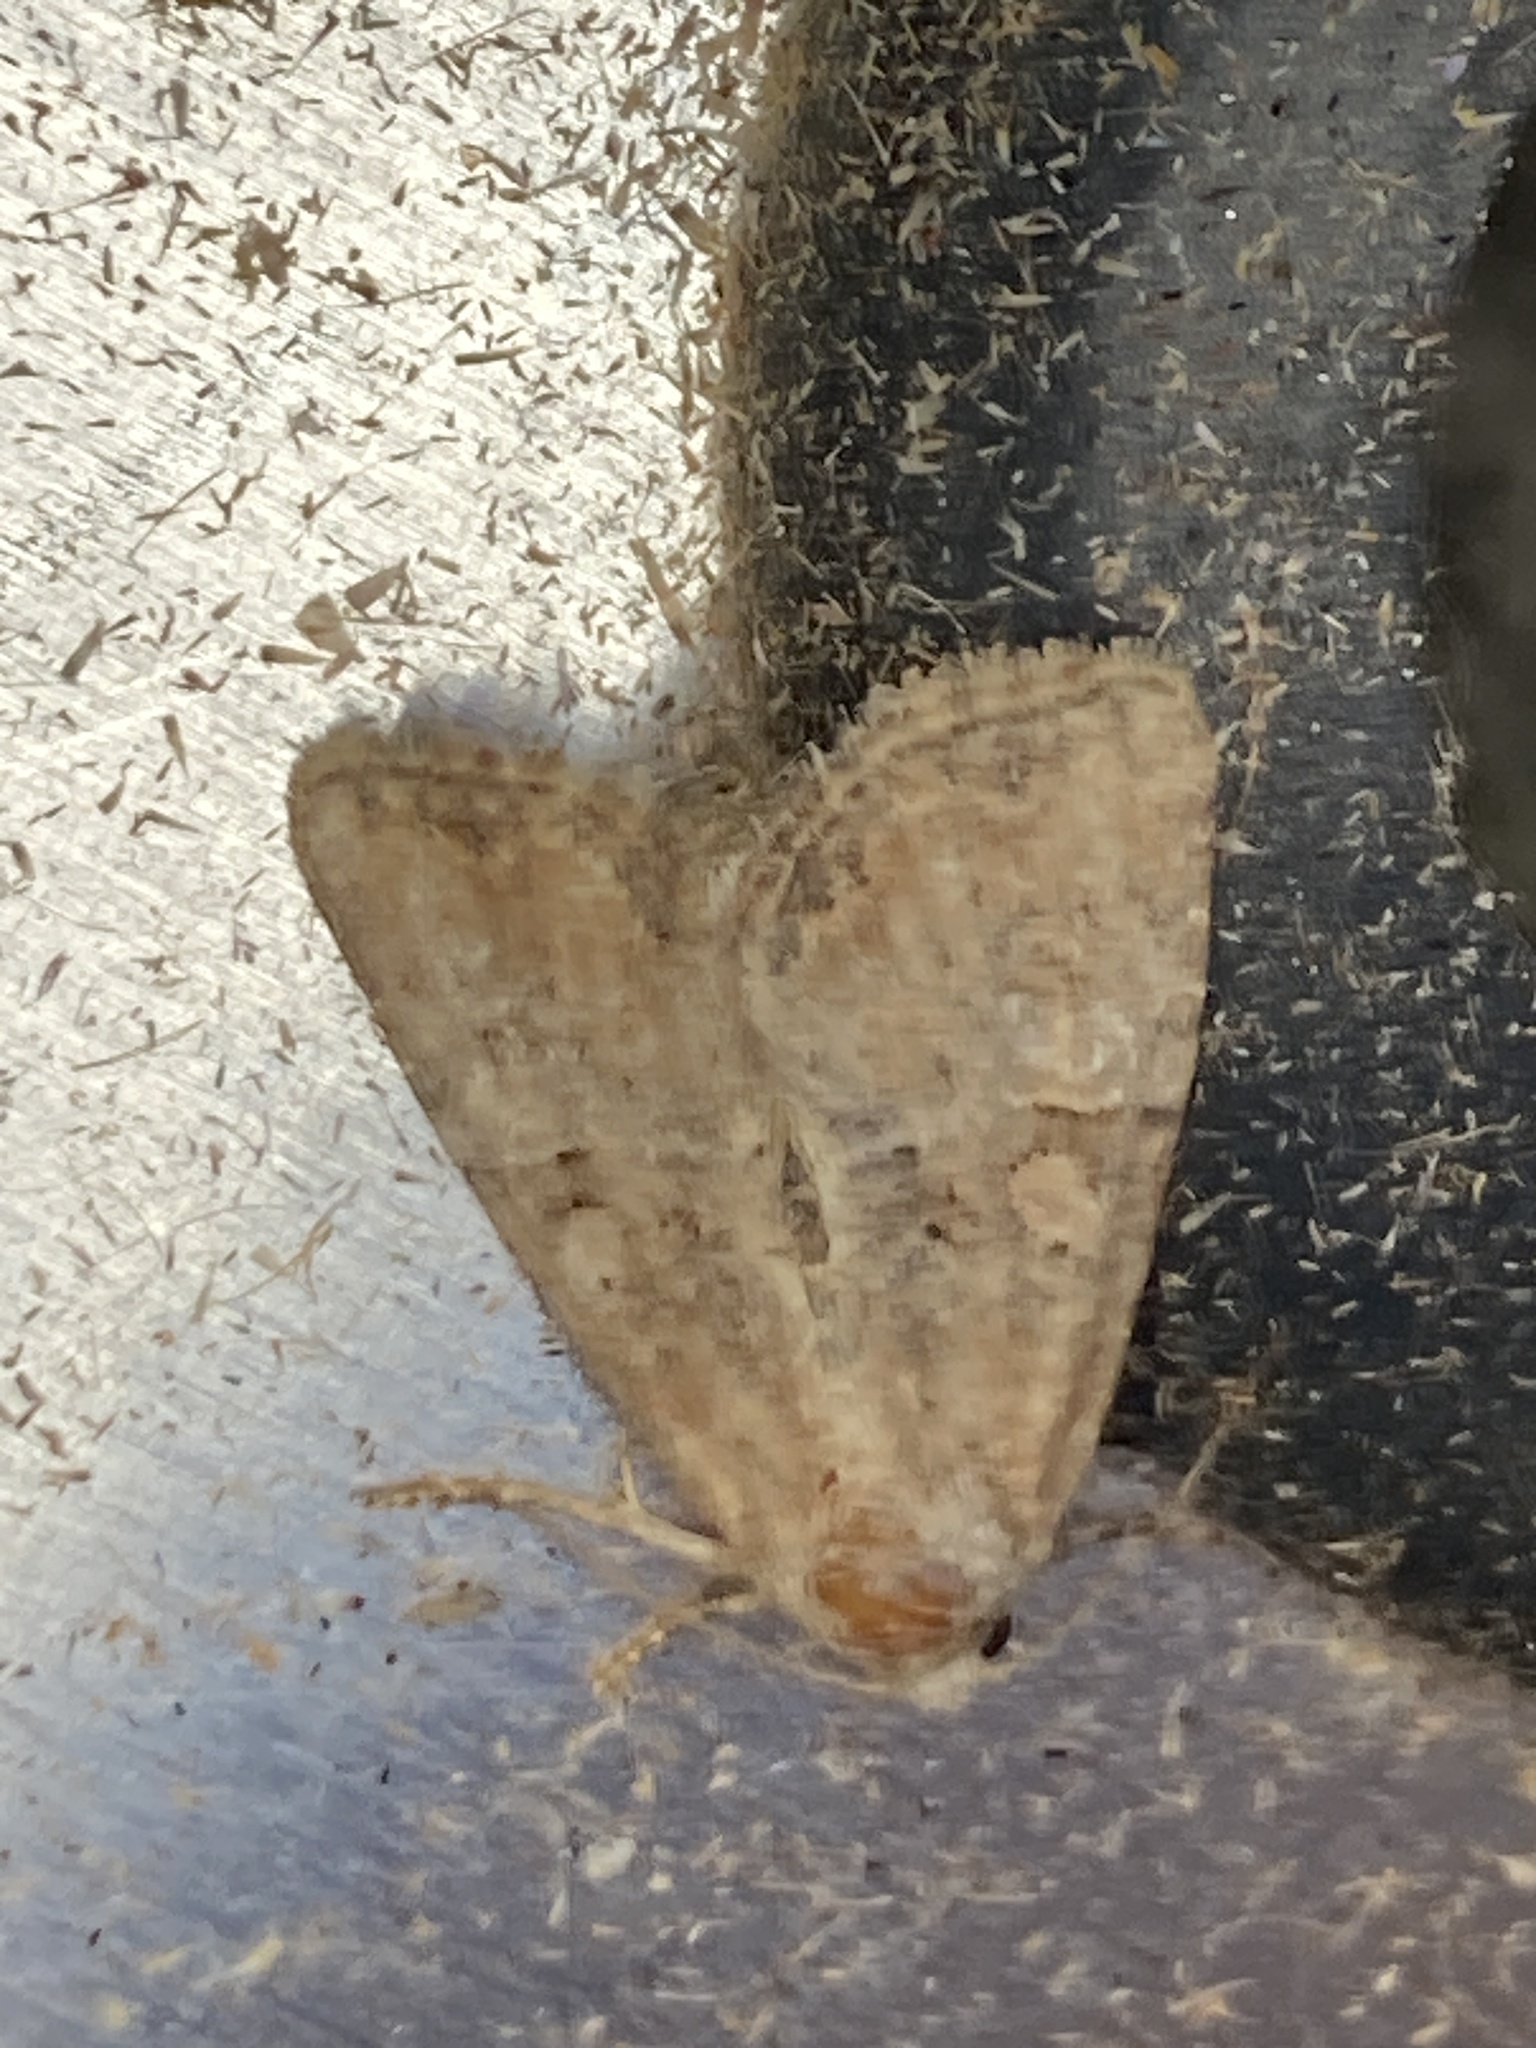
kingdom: Animalia
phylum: Arthropoda
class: Insecta
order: Lepidoptera
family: Noctuidae
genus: Mesoligia
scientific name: Mesoligia furuncula
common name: Cloaked minor
